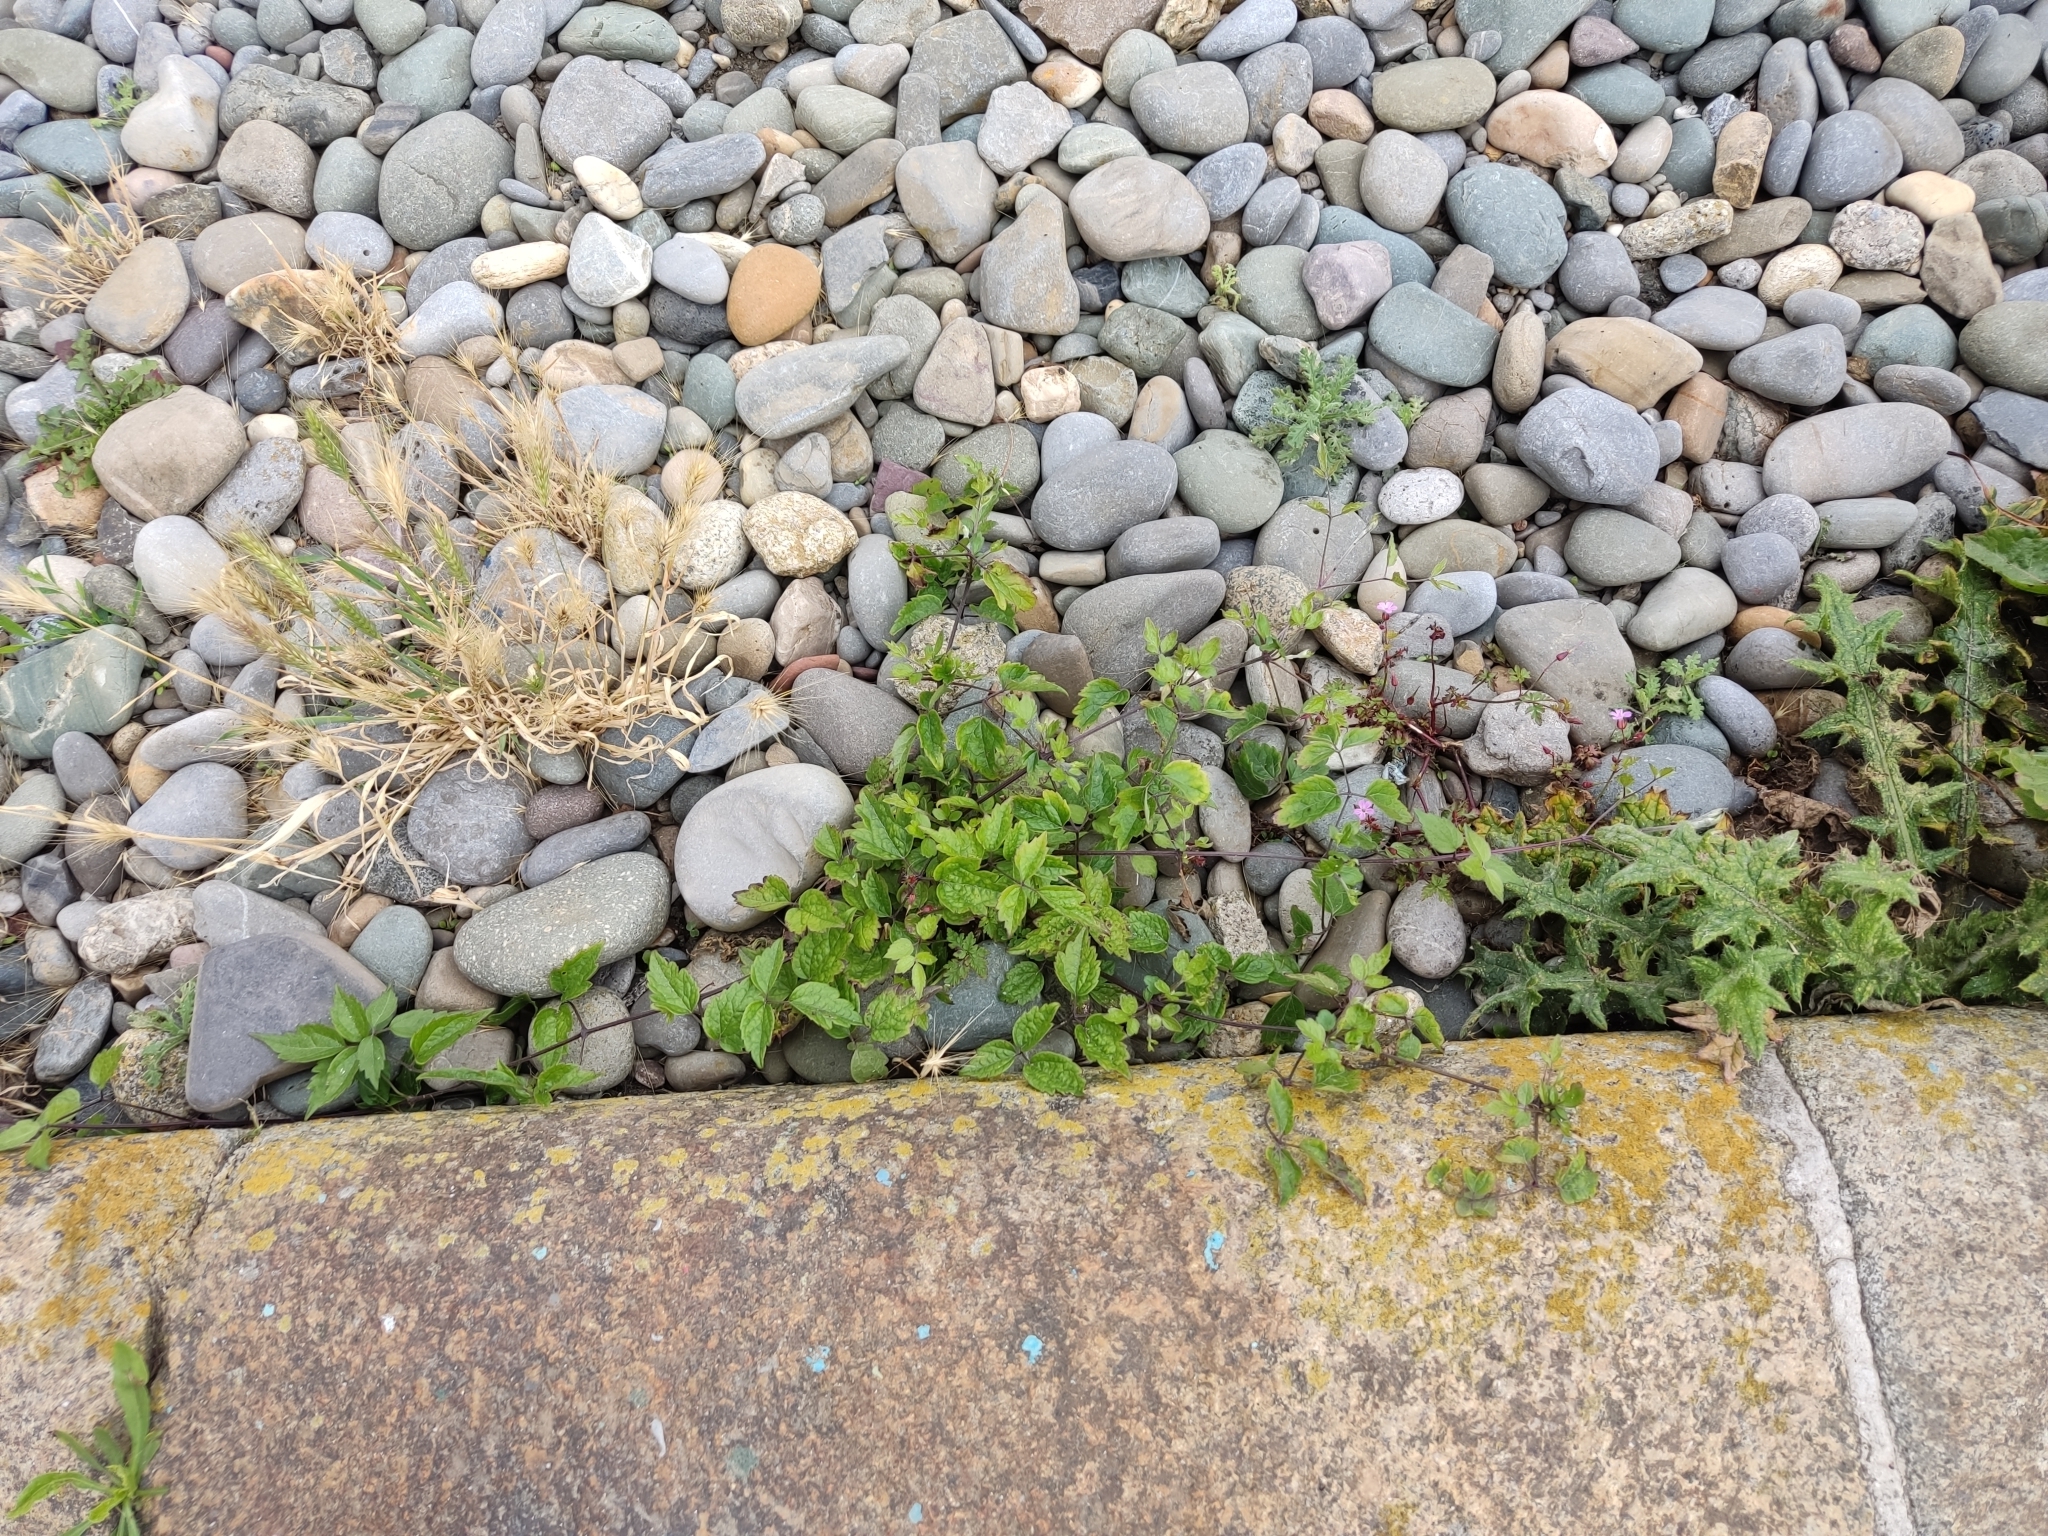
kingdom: Plantae
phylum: Tracheophyta
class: Magnoliopsida
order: Ranunculales
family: Ranunculaceae
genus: Clematis
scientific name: Clematis vitalba
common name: Evergreen clematis
